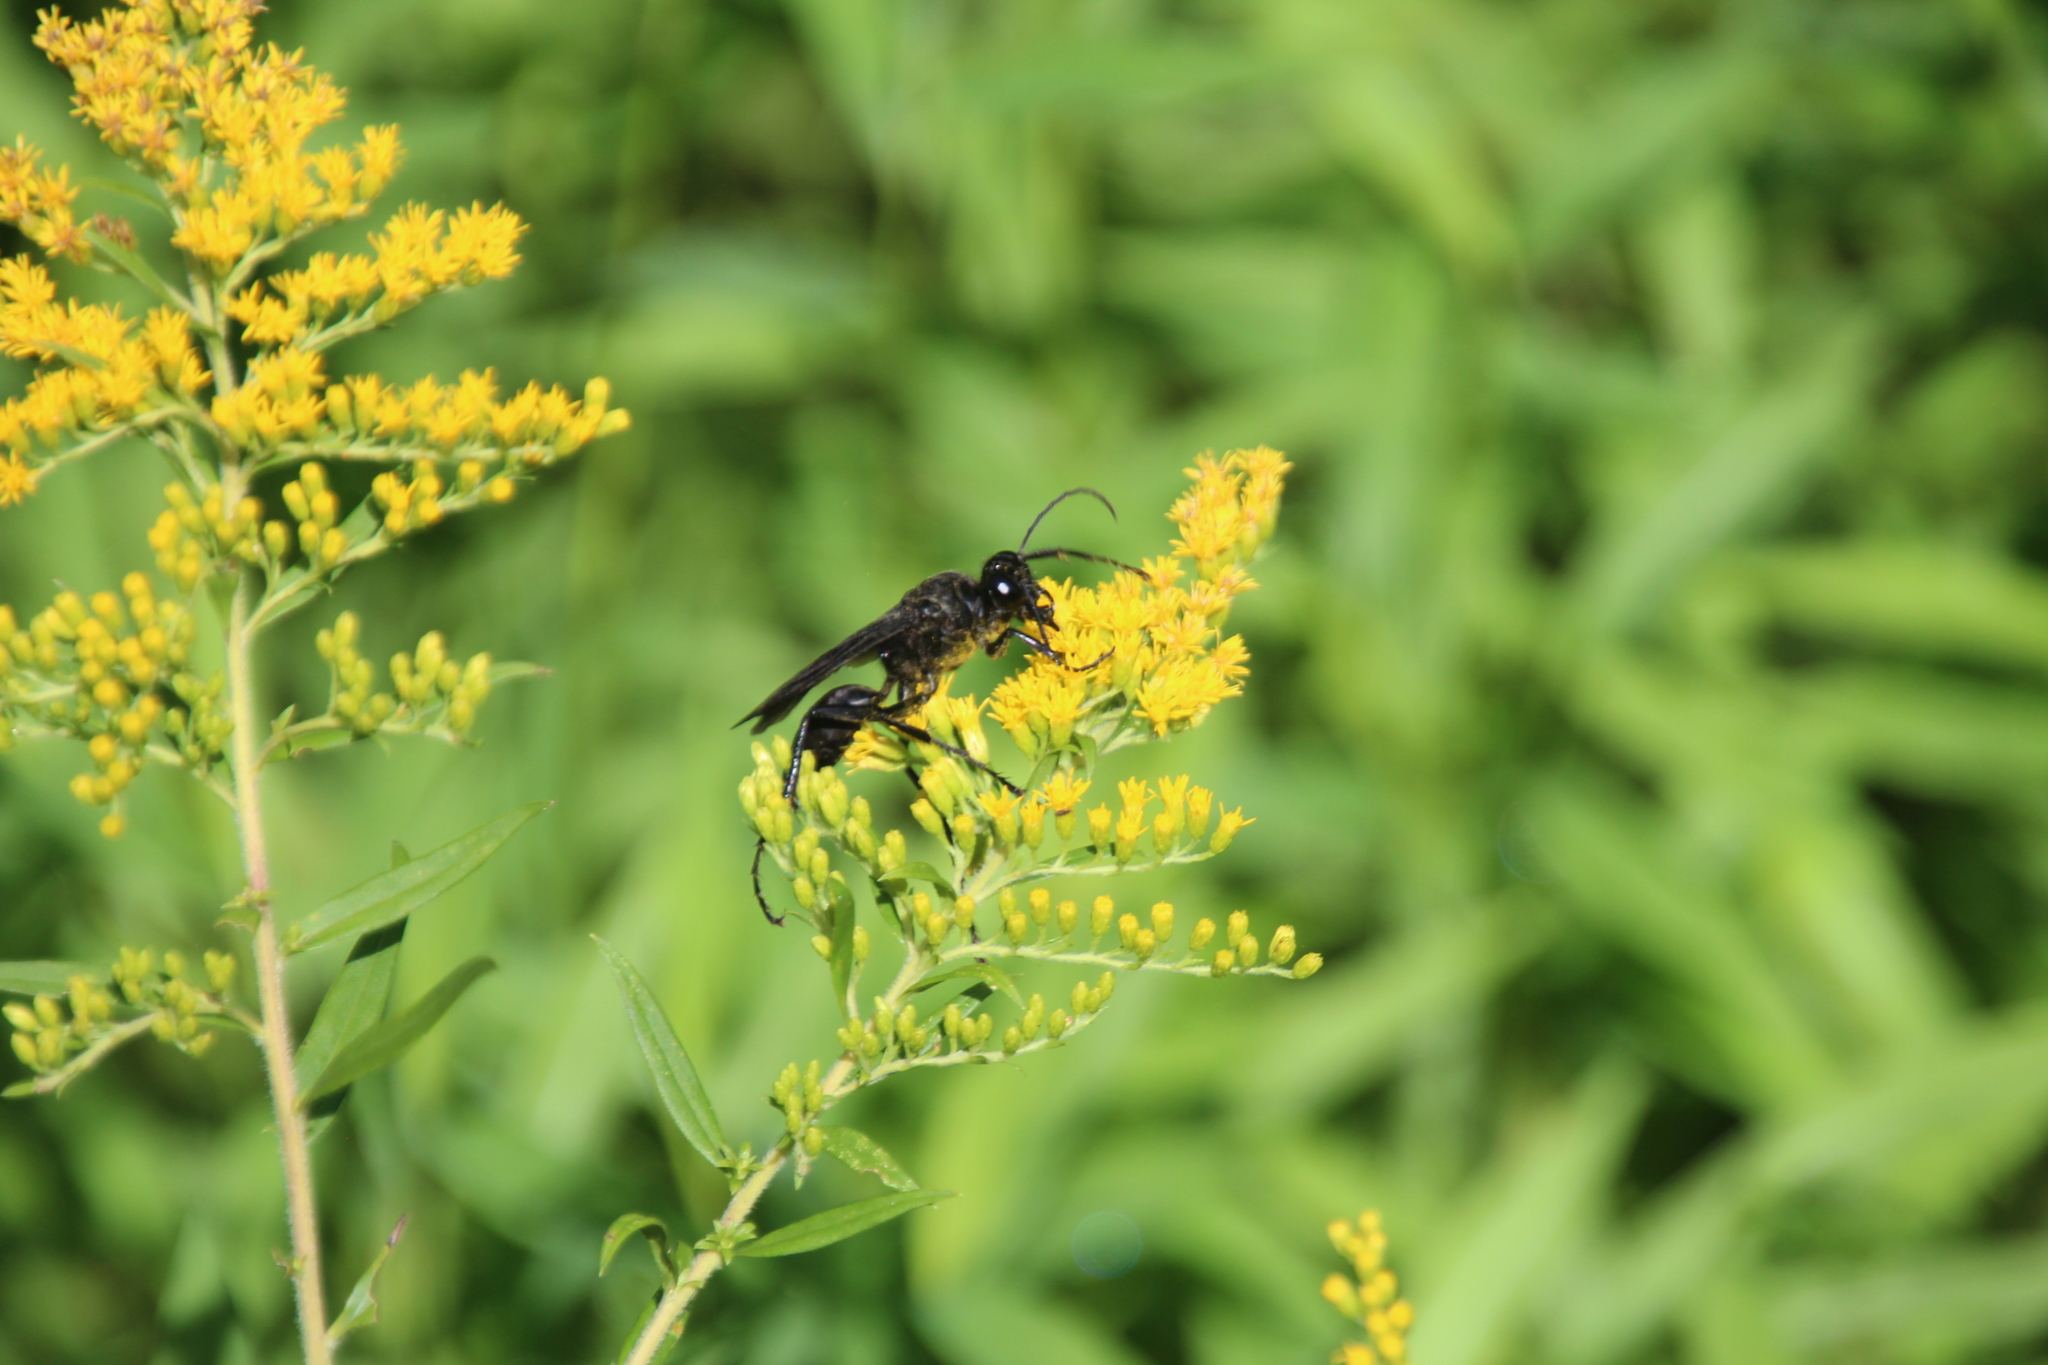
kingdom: Animalia
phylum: Arthropoda
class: Insecta
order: Hymenoptera
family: Sphecidae
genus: Sphex
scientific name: Sphex pensylvanicus
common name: Great black digger wasp
